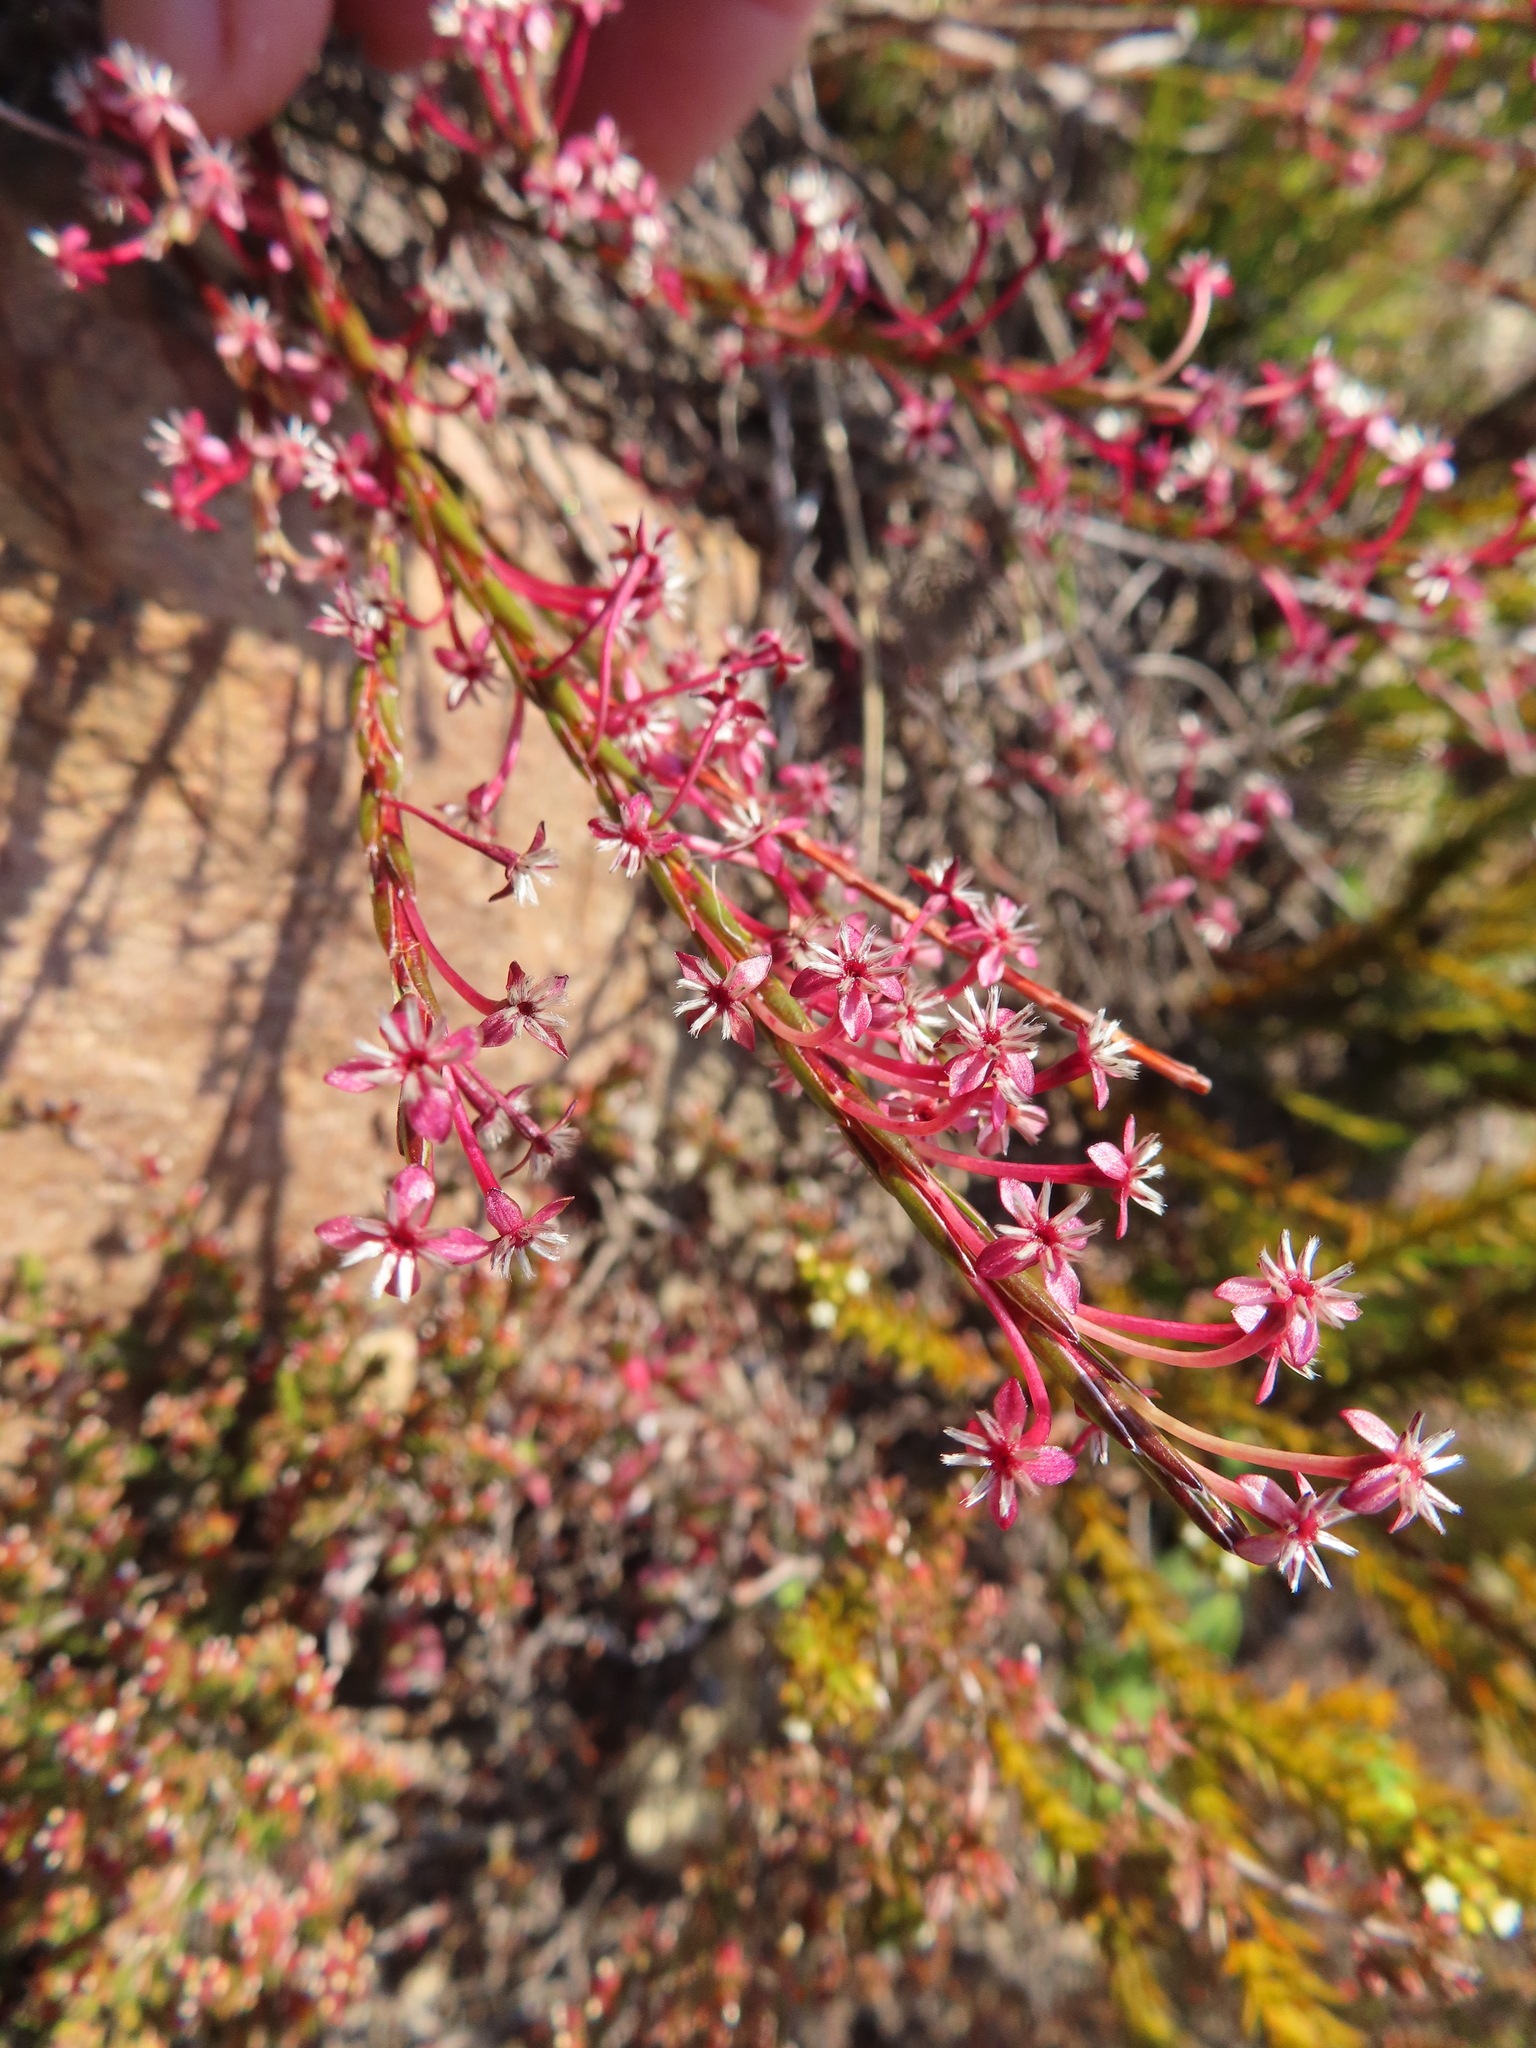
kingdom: Plantae
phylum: Tracheophyta
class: Magnoliopsida
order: Malvales
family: Thymelaeaceae
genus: Struthiola
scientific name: Struthiola macowanii
